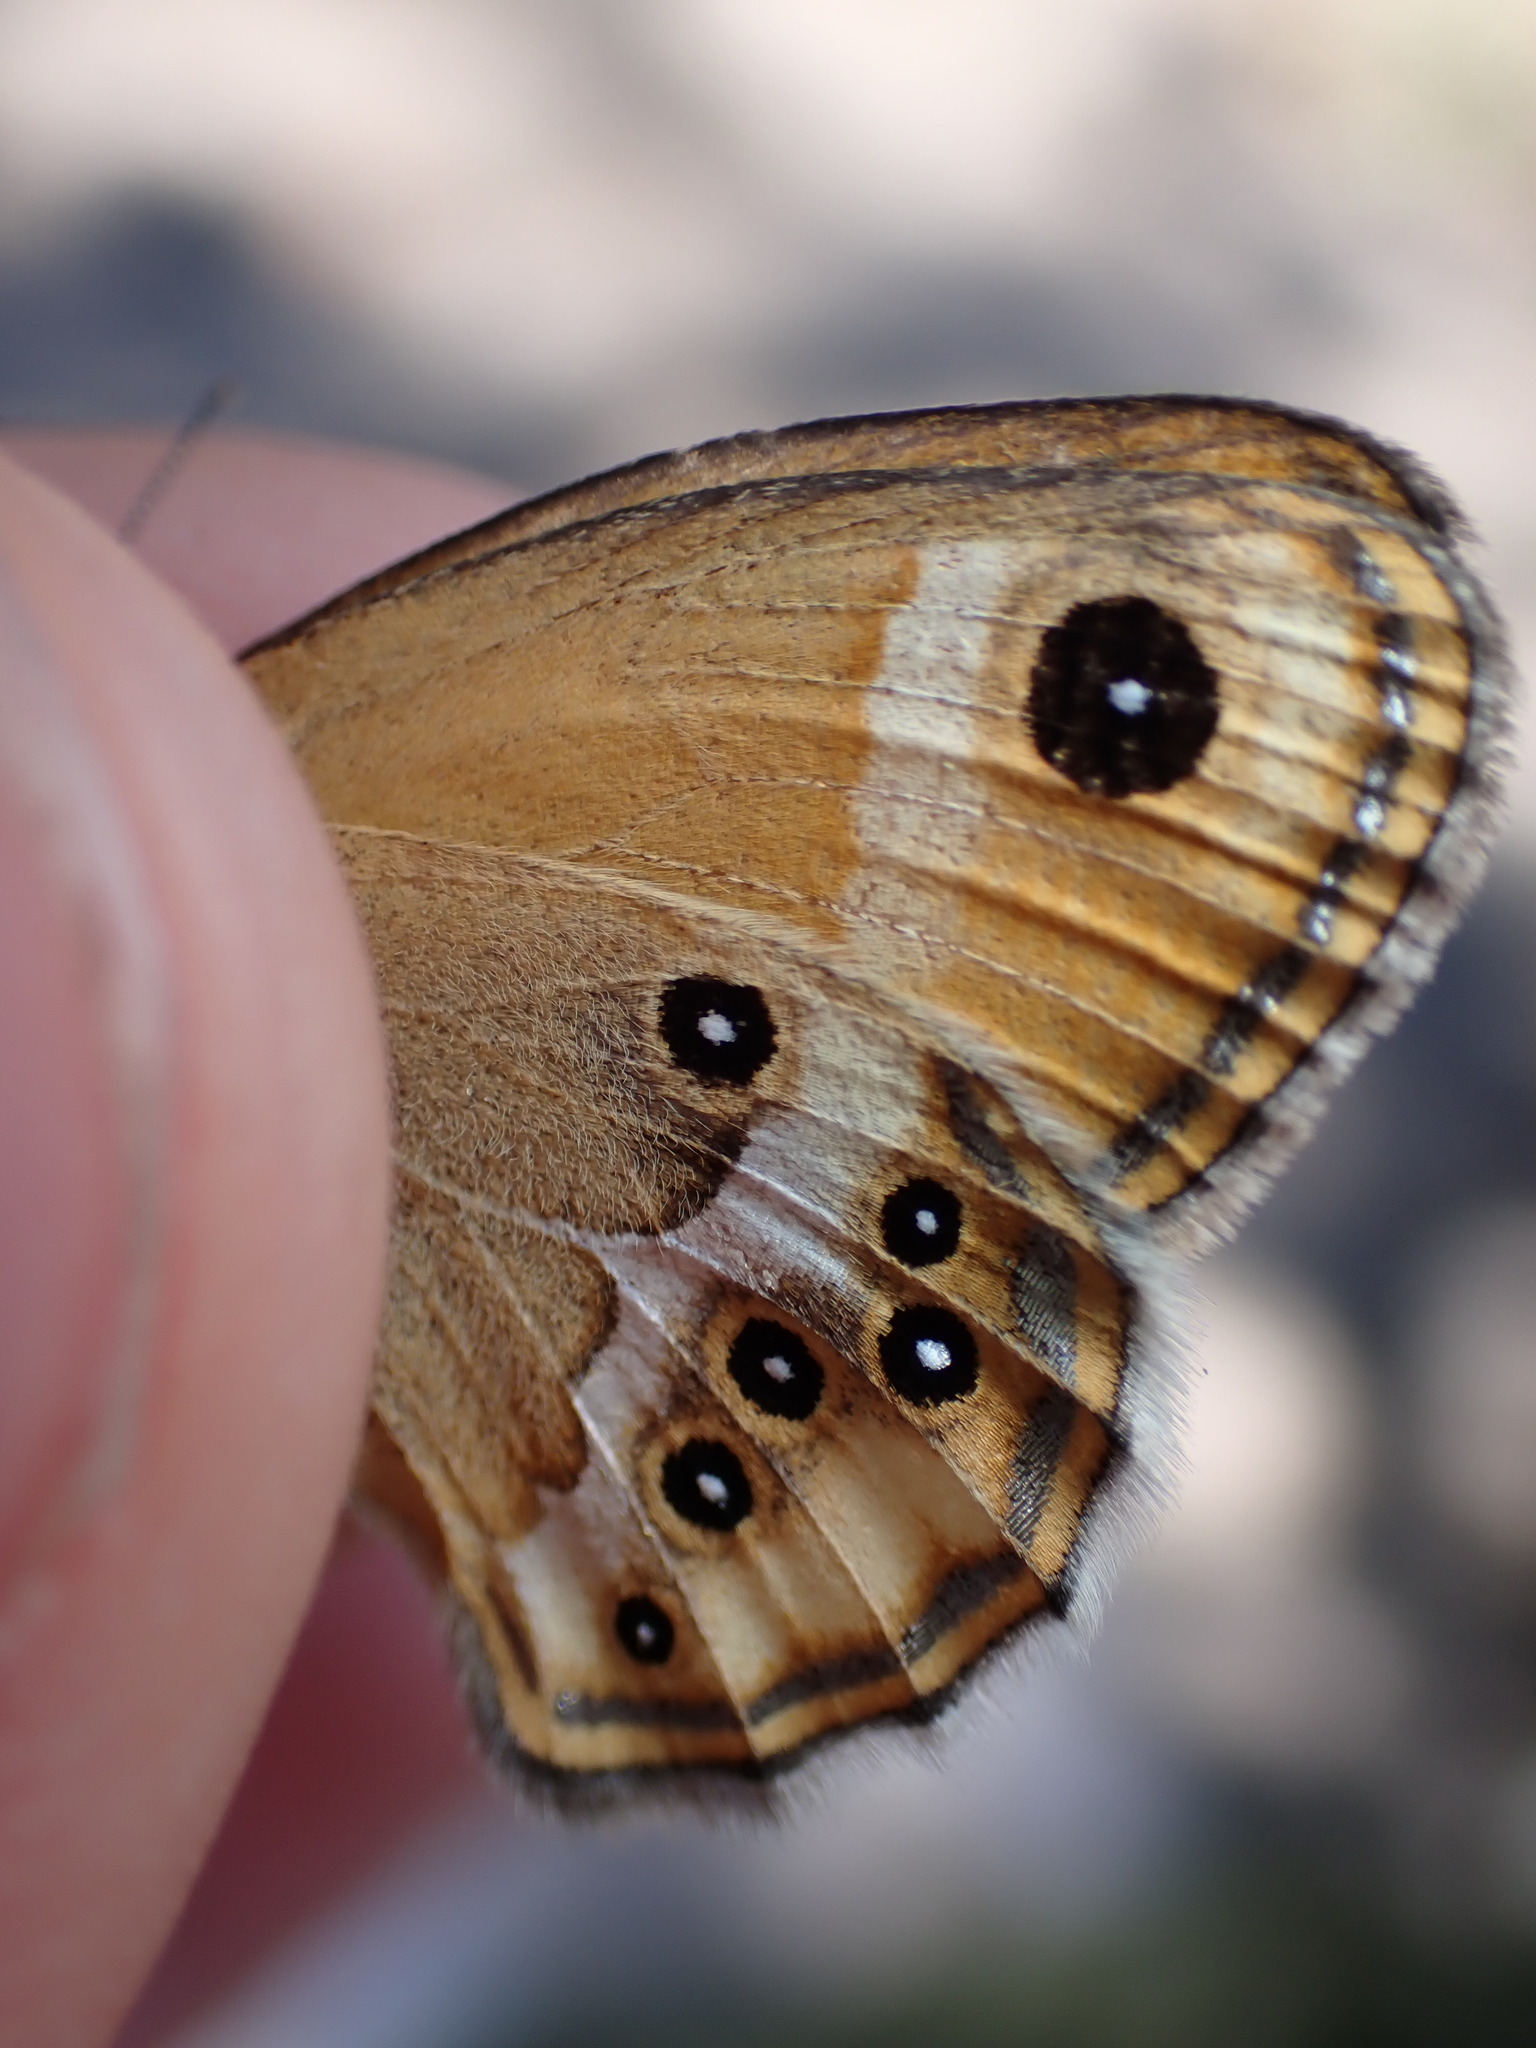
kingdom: Animalia
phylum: Arthropoda
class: Insecta
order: Lepidoptera
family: Nymphalidae
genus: Coenonympha
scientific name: Coenonympha dorus
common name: Dusky heath
